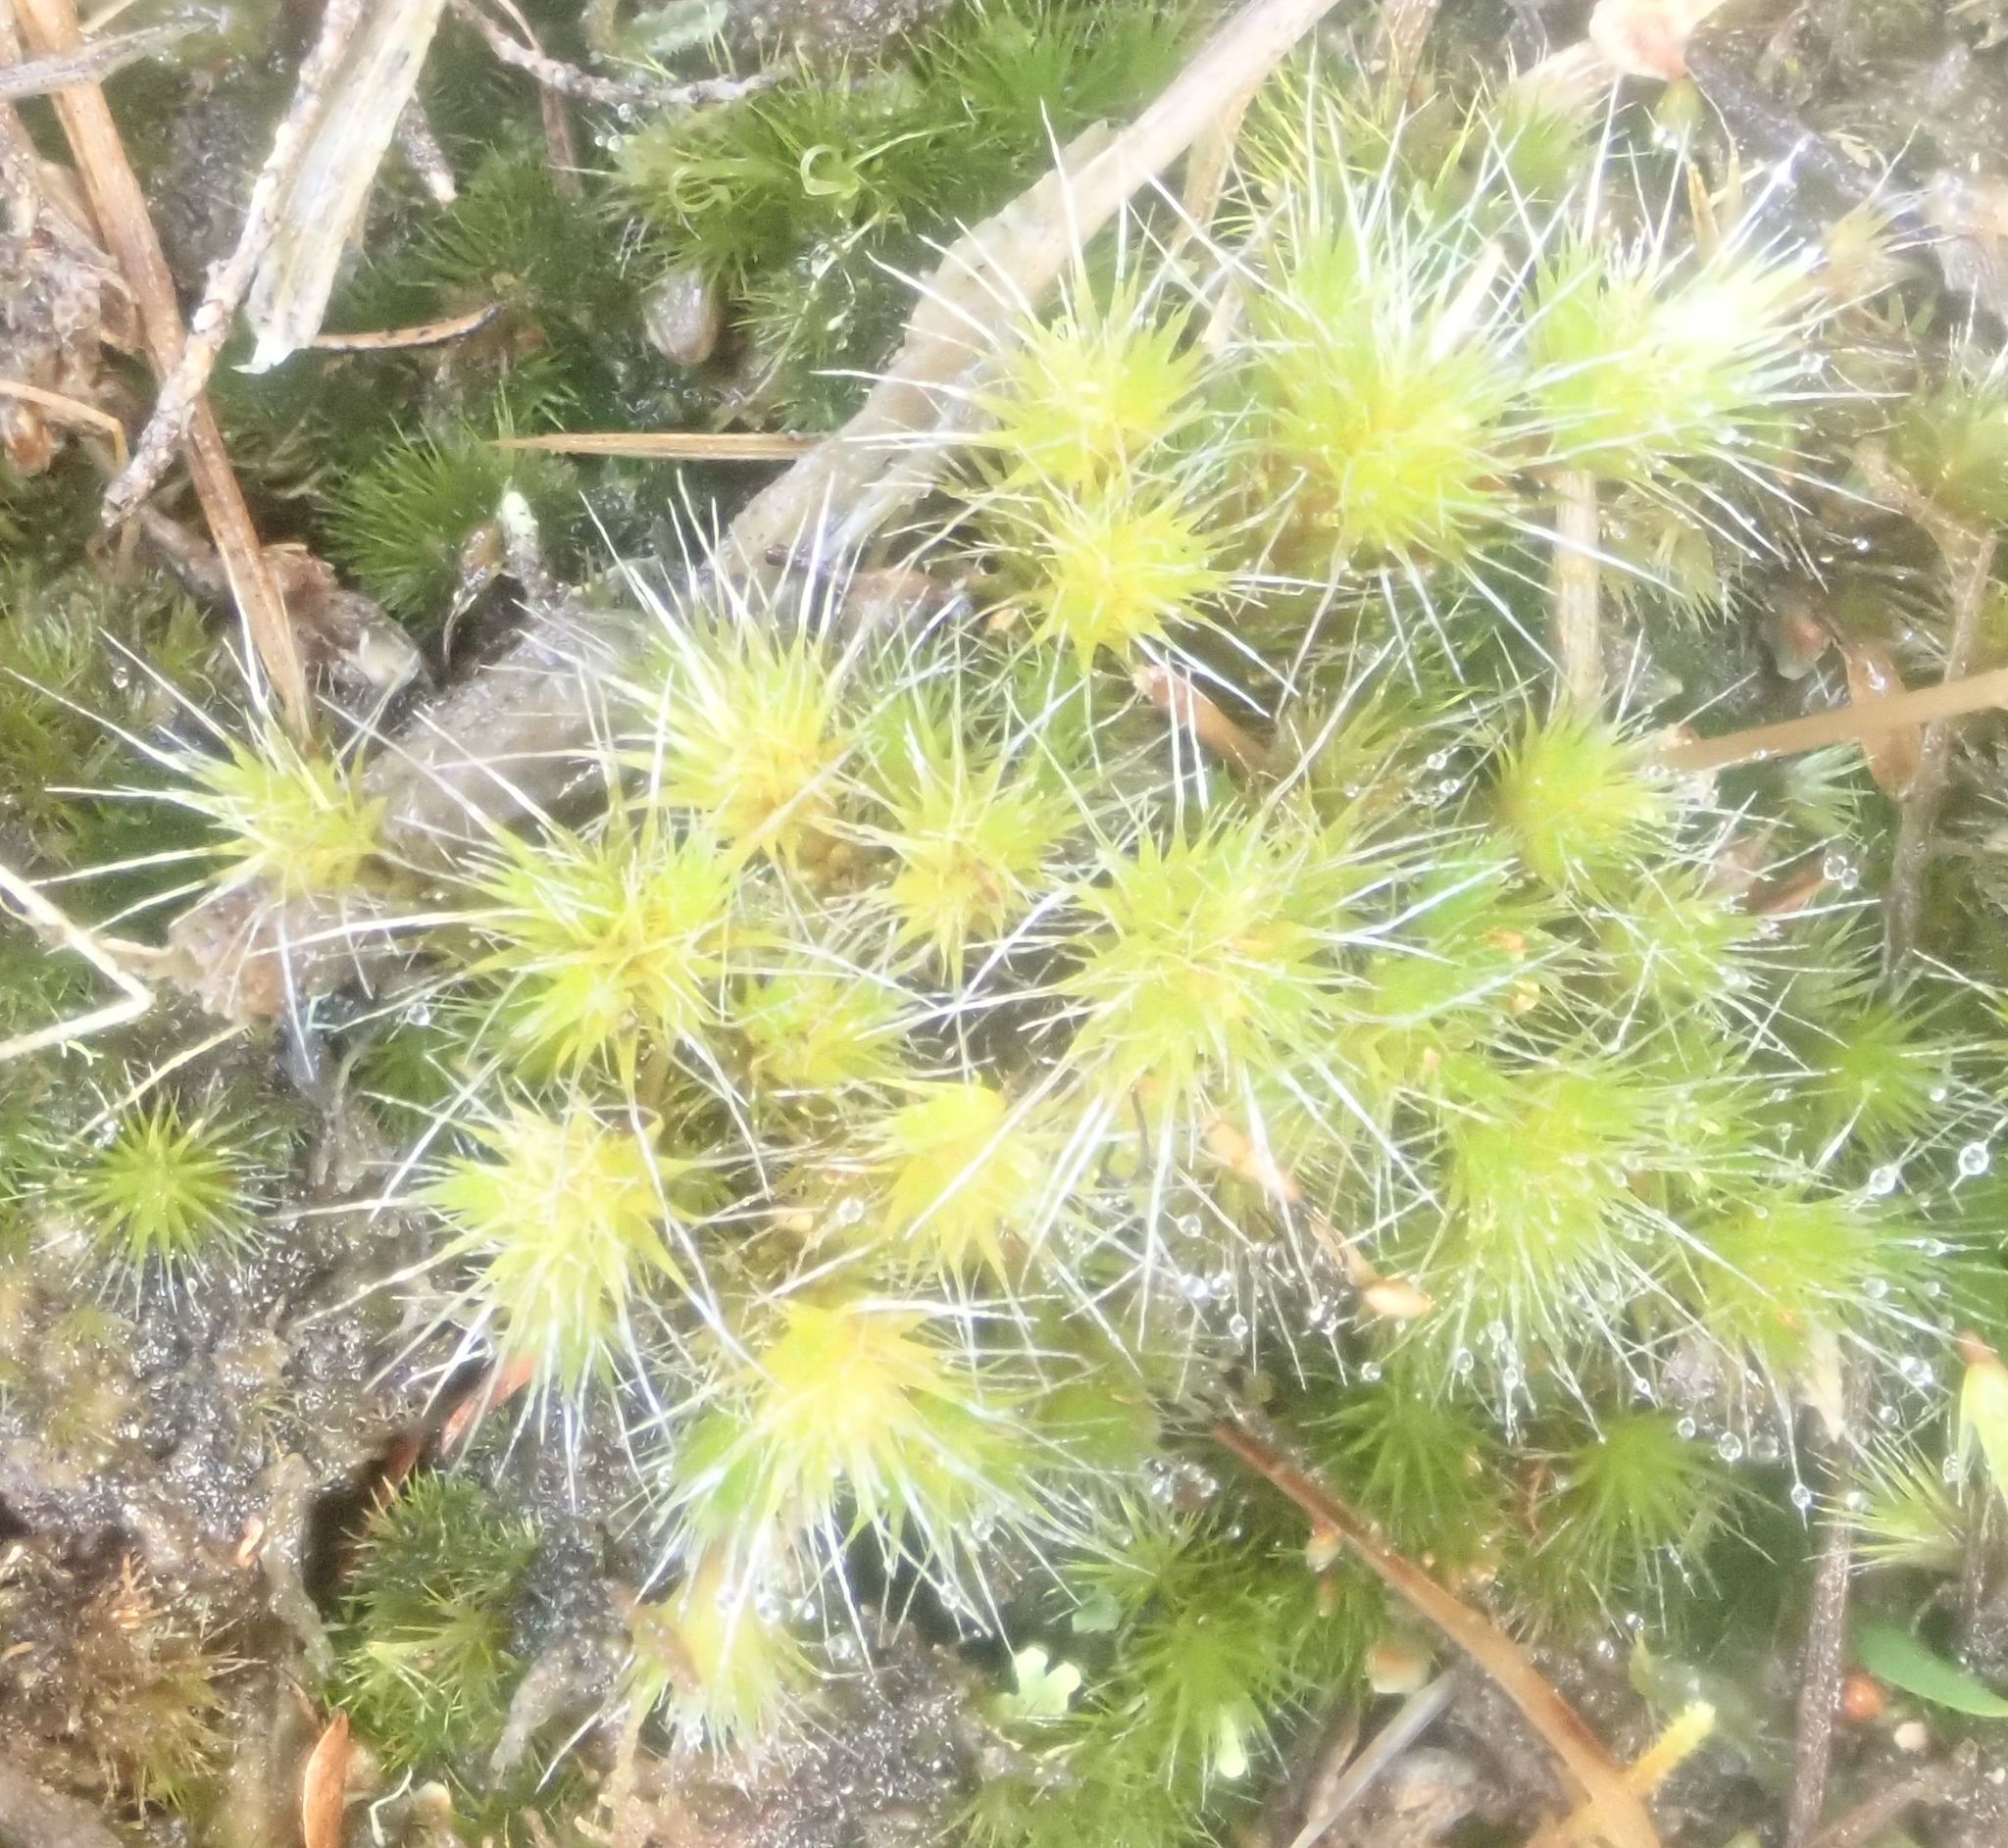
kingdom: Plantae
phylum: Bryophyta
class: Bryopsida
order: Dicranales
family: Leucobryaceae
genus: Campylopus
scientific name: Campylopus introflexus
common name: Heath star moss
